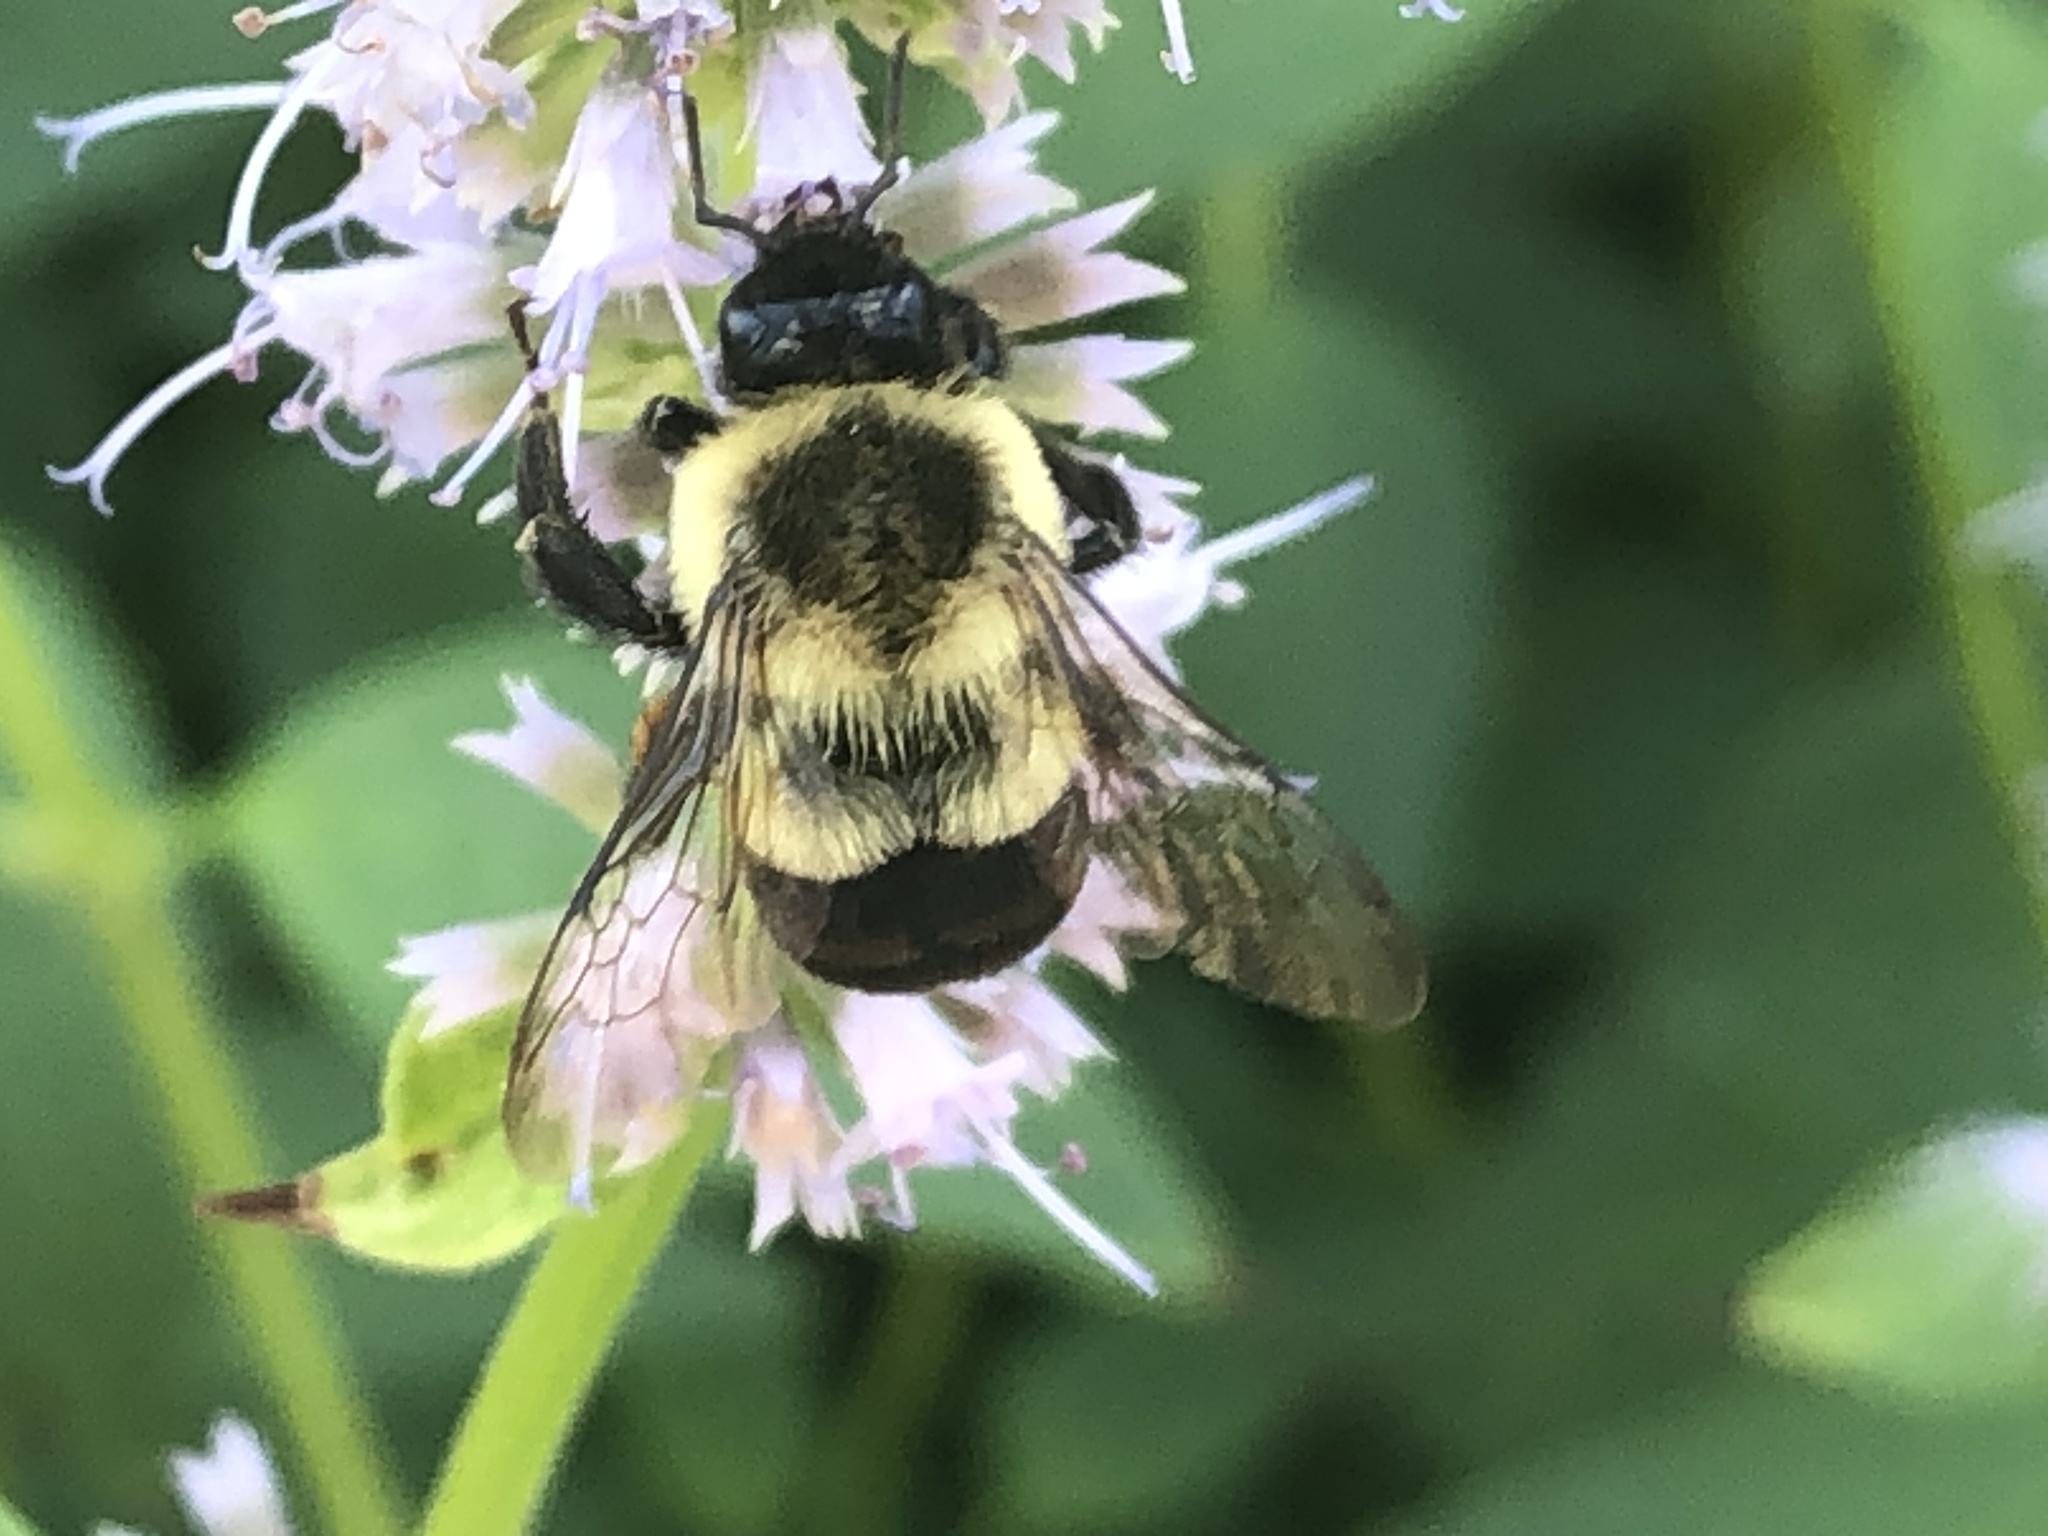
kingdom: Animalia
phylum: Arthropoda
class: Insecta
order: Hymenoptera
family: Apidae
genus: Bombus
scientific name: Bombus impatiens
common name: Common eastern bumble bee
